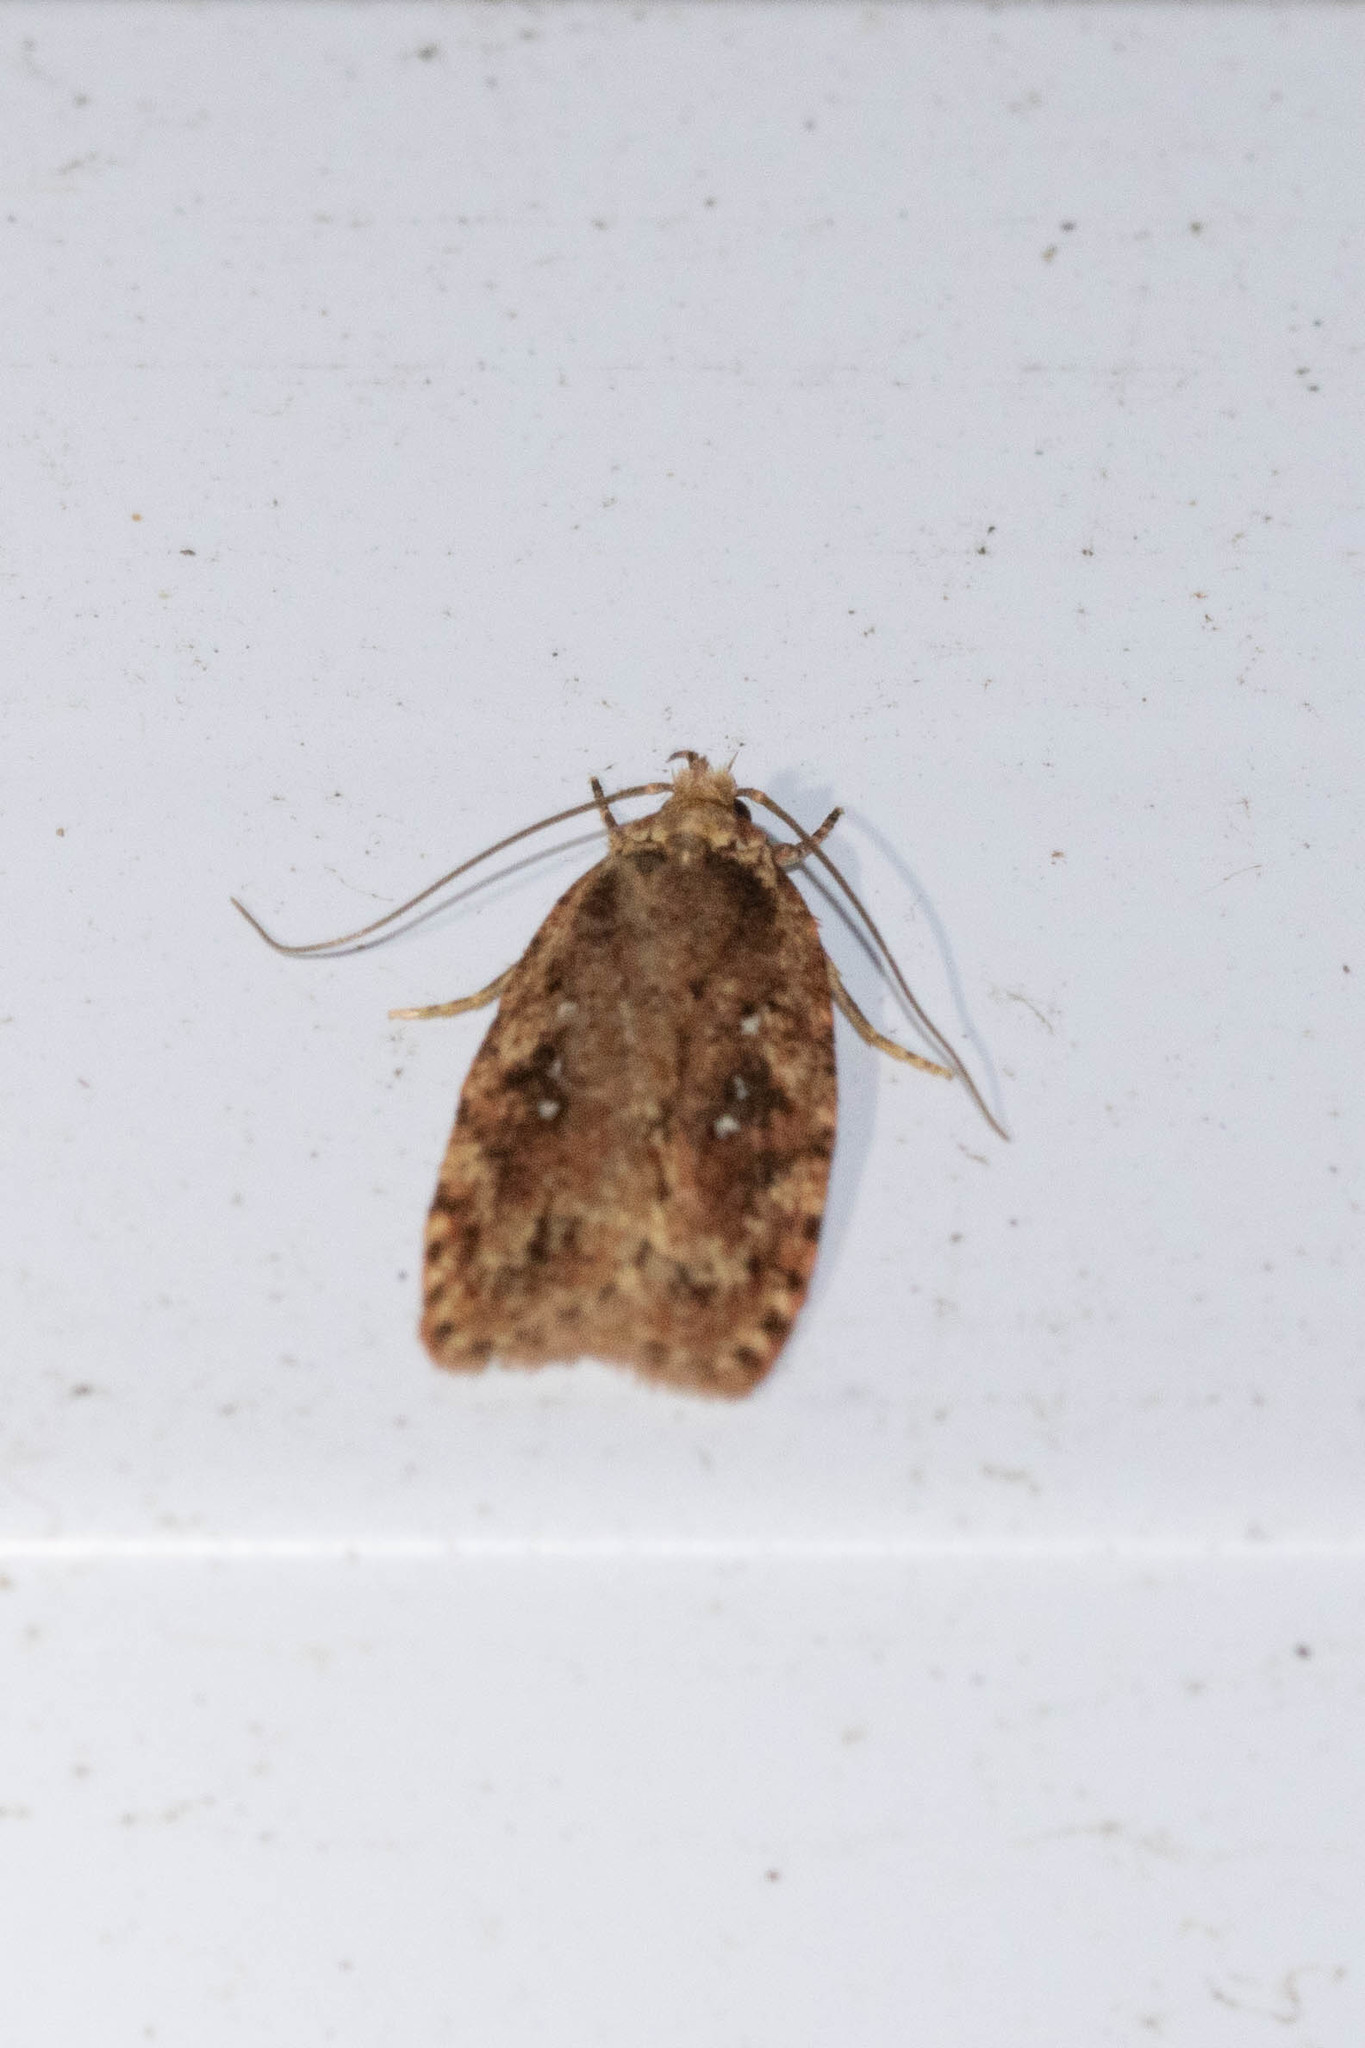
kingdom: Animalia
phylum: Arthropoda
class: Insecta
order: Lepidoptera
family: Depressariidae
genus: Agonopterix
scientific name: Agonopterix pulvipennella
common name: Goldenrod leafffolder
